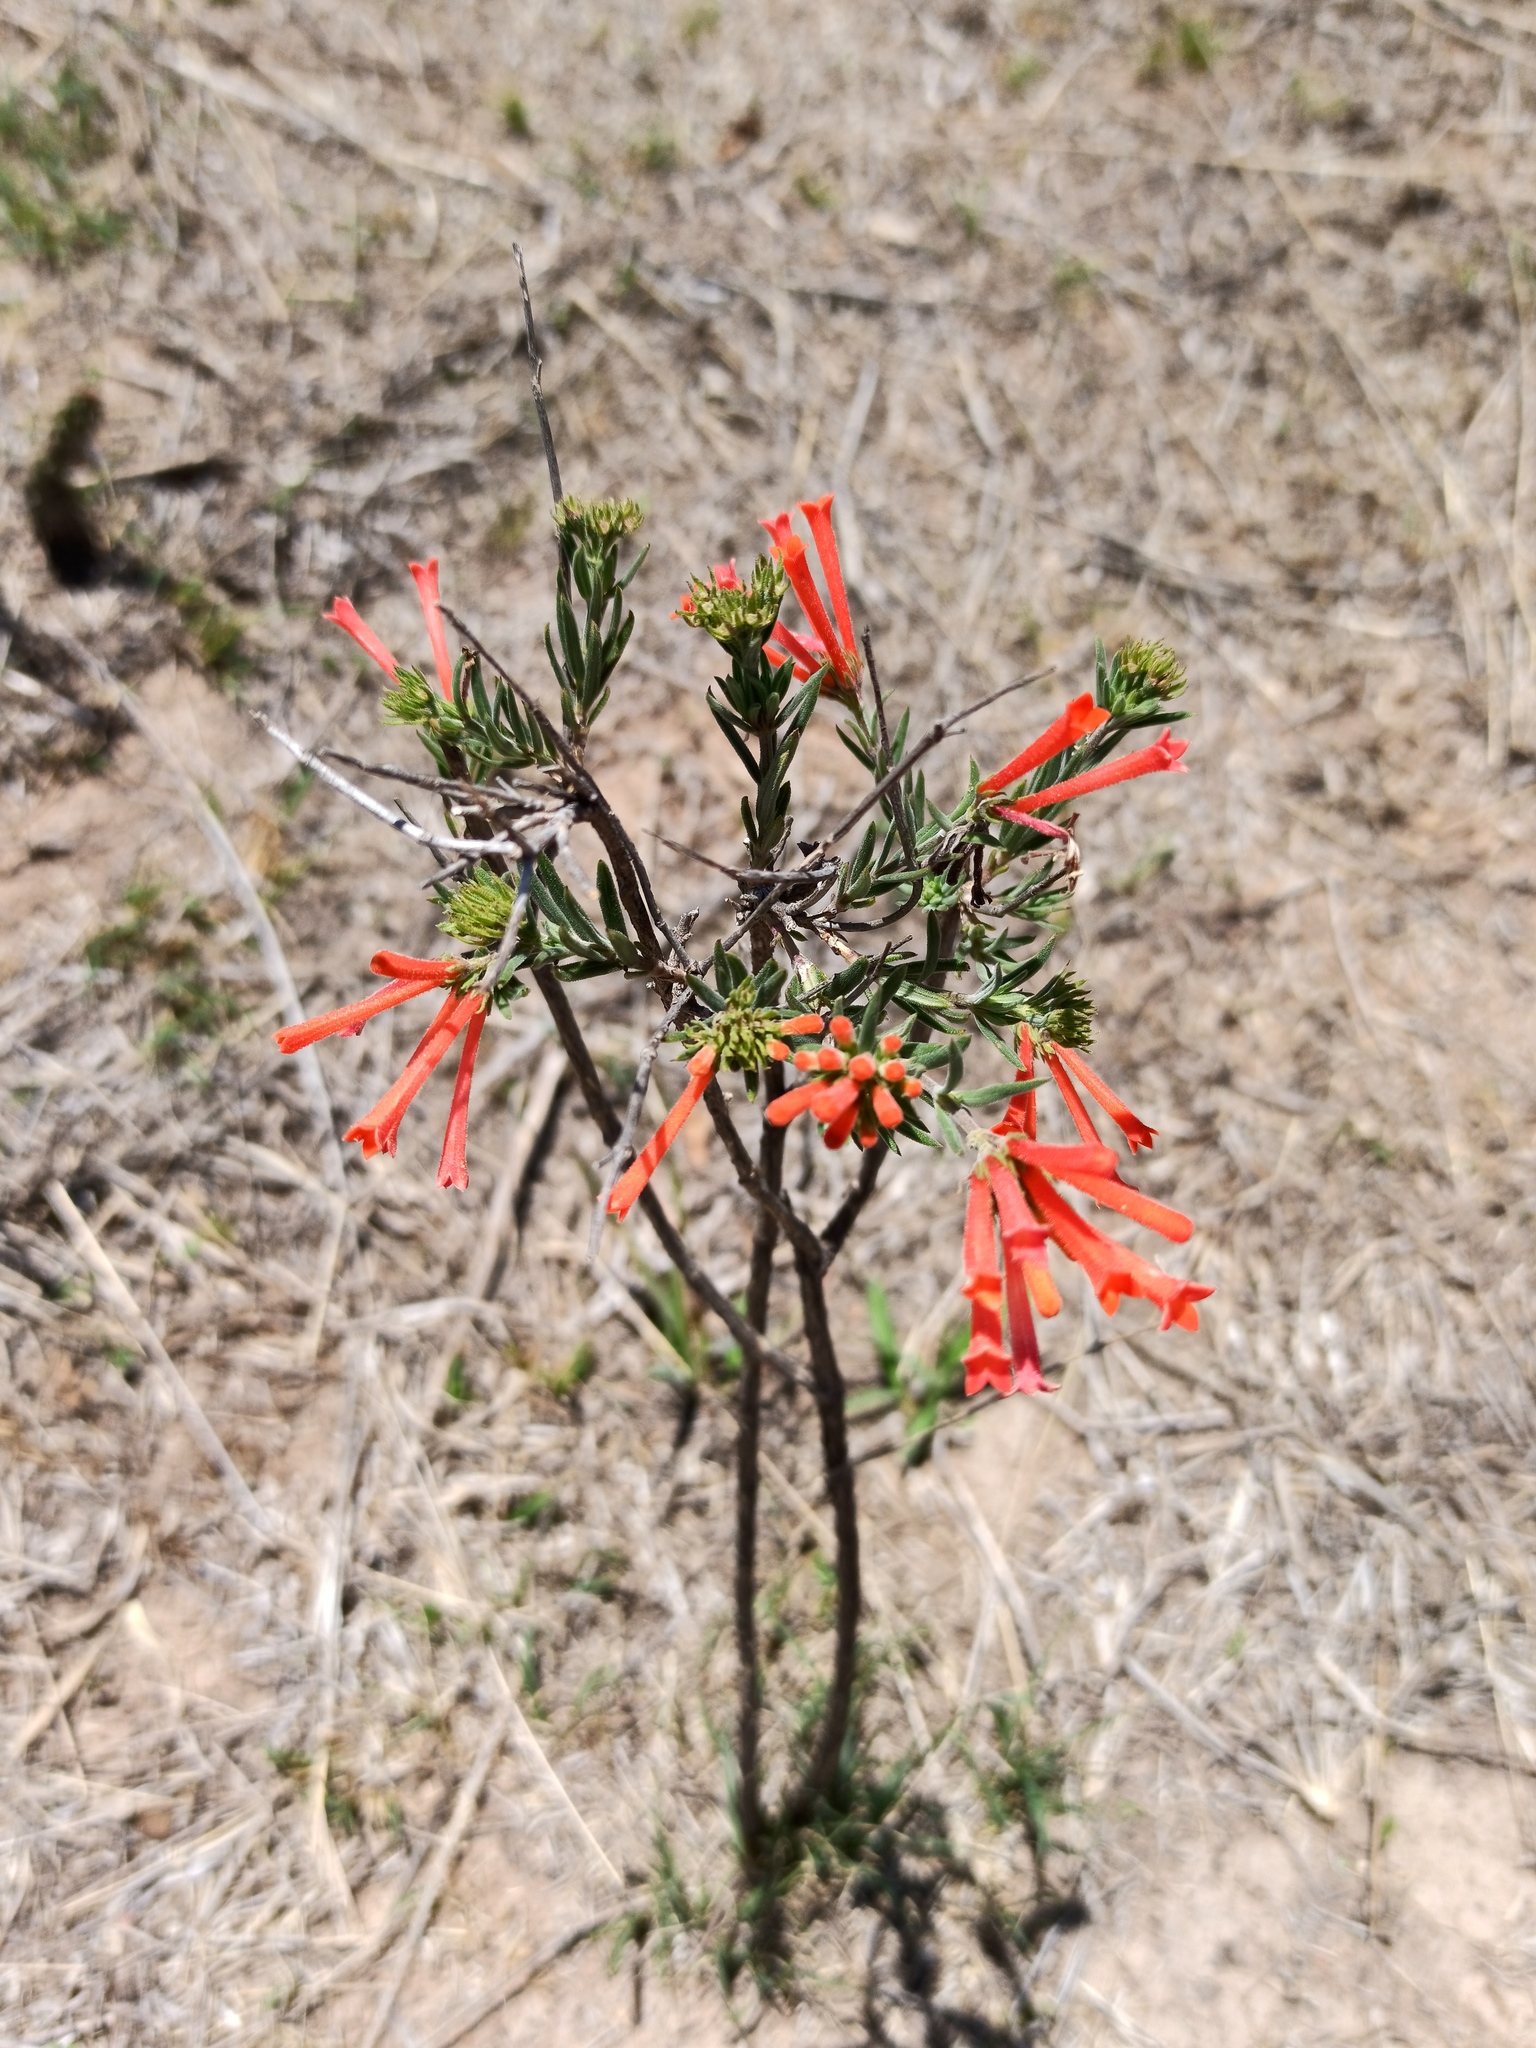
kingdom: Plantae
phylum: Tracheophyta
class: Magnoliopsida
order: Gentianales
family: Rubiaceae
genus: Bouvardia
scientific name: Bouvardia ternifolia
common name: Scarlet bouvardia
